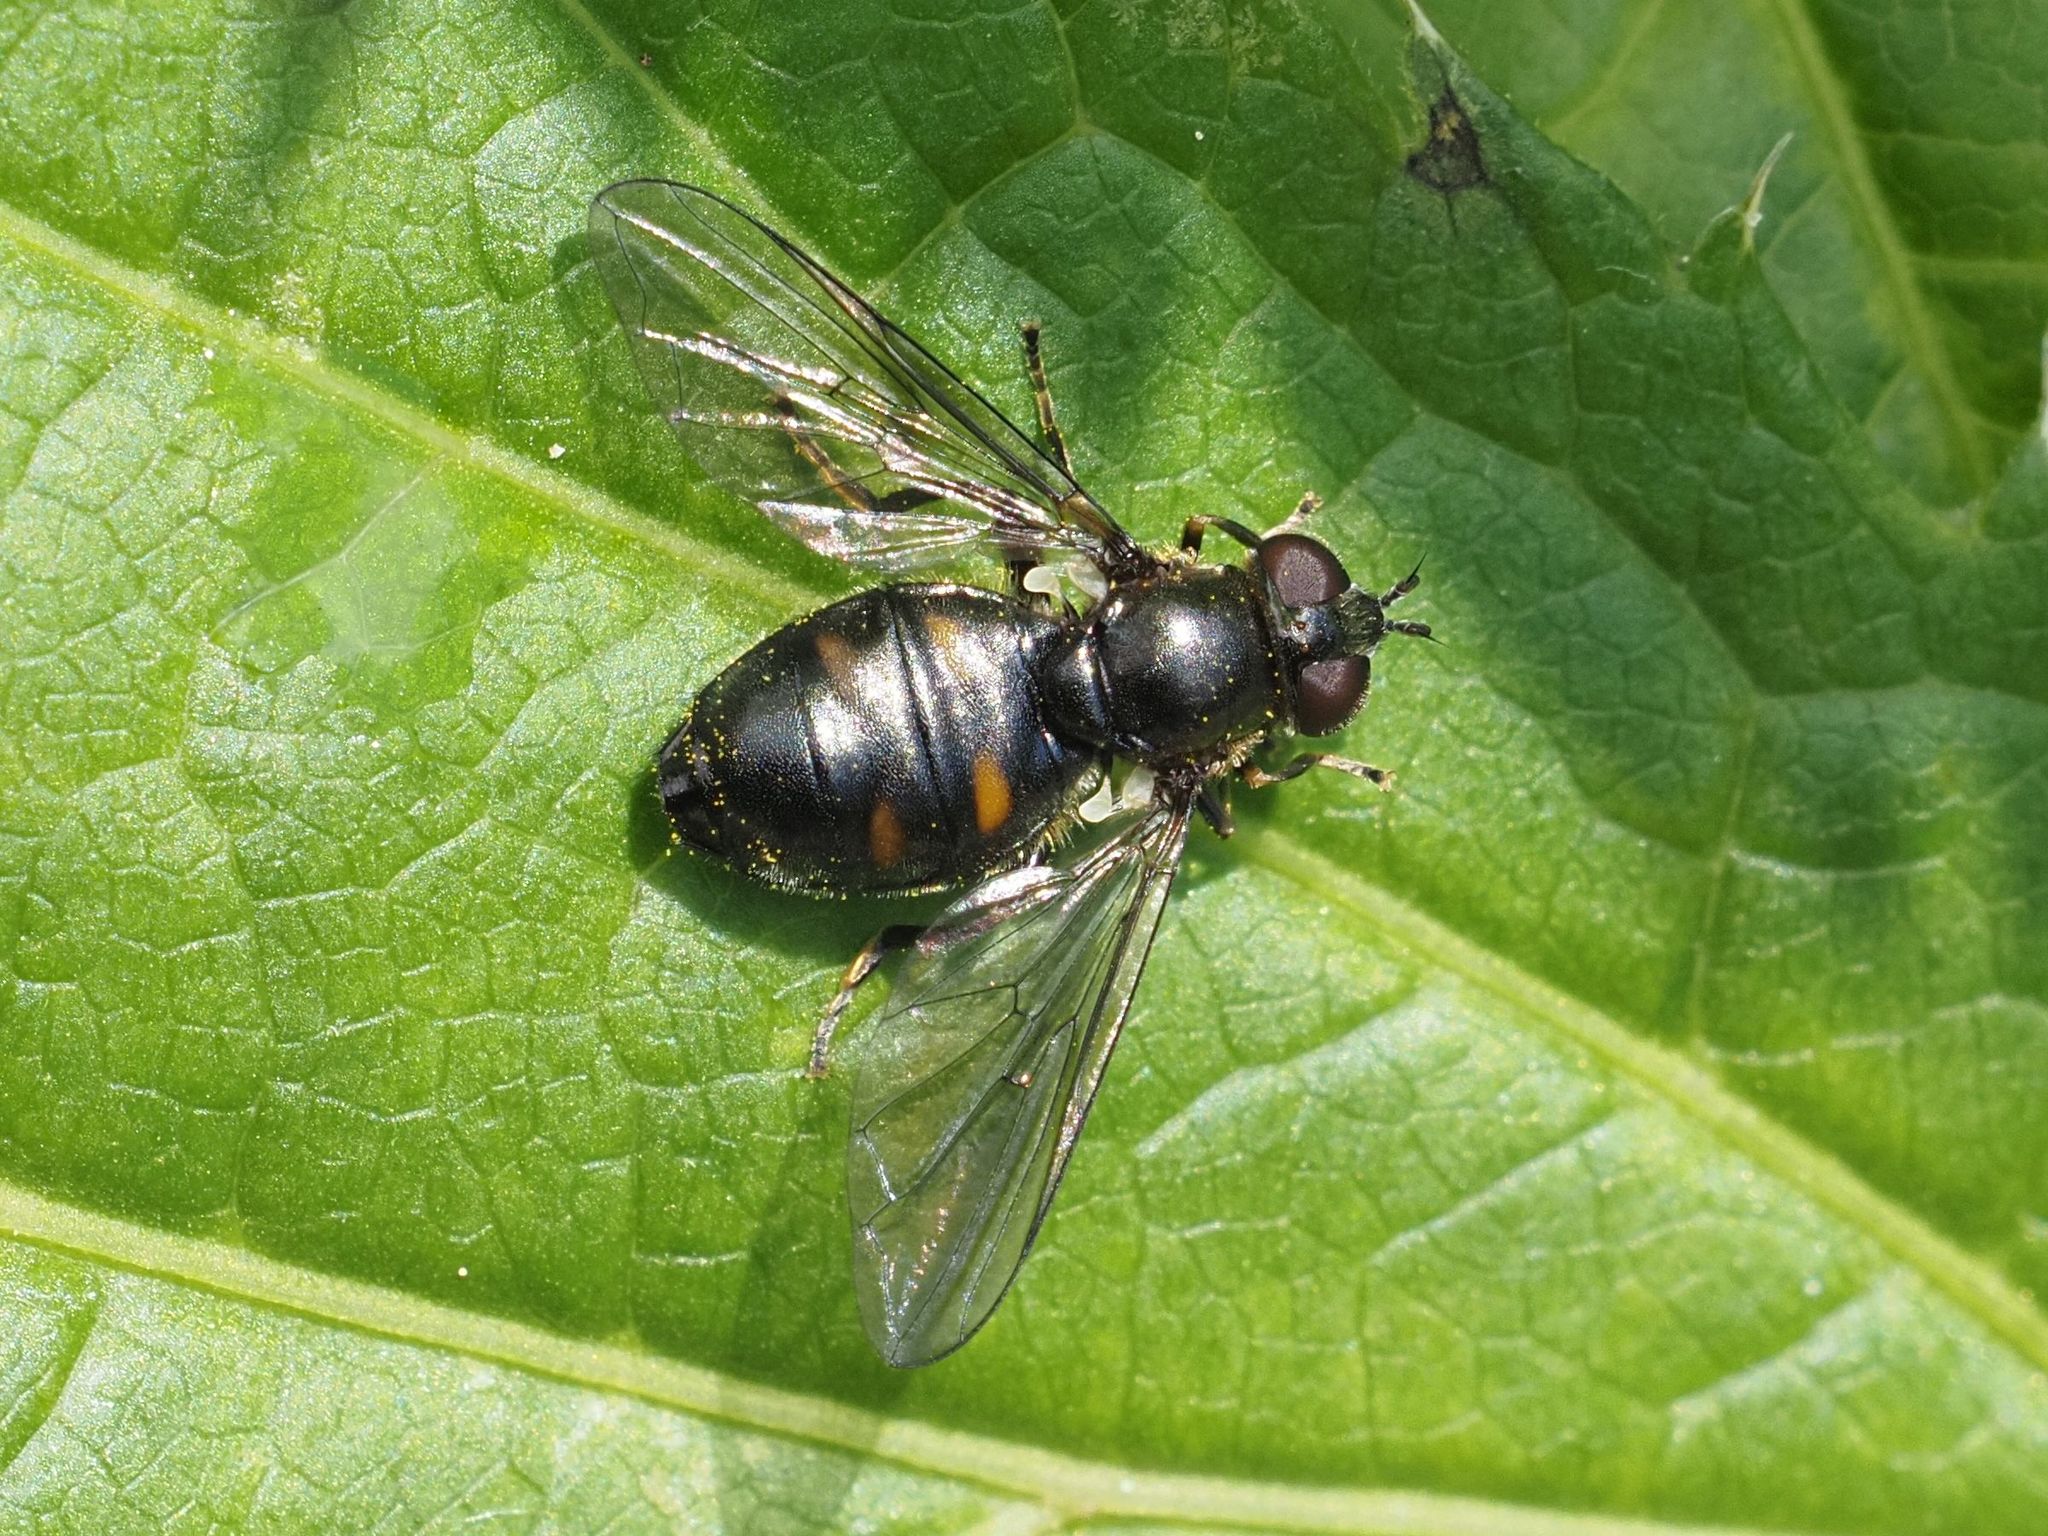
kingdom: Animalia
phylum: Arthropoda
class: Insecta
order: Diptera
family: Syrphidae
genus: Pipiza
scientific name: Pipiza quadrimaculata
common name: Four-spotted pipiza
